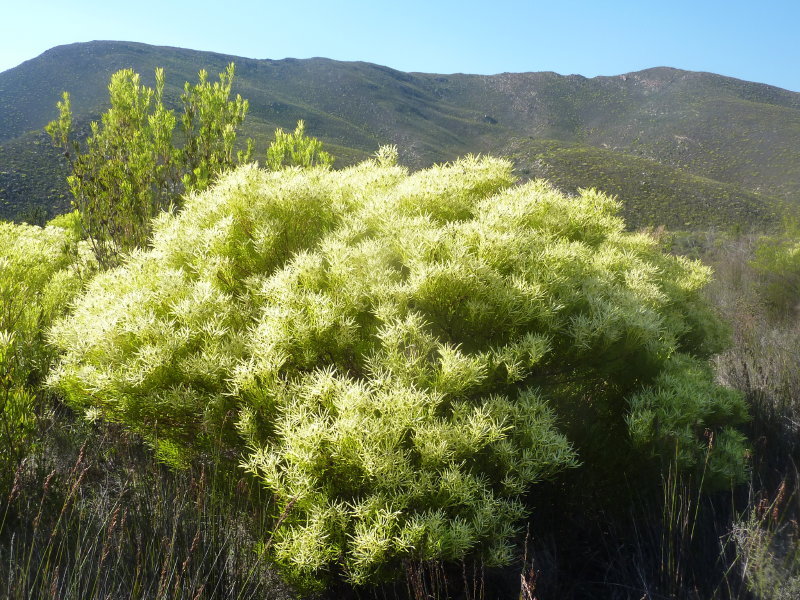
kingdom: Plantae
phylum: Tracheophyta
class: Magnoliopsida
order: Proteales
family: Proteaceae
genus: Leucadendron
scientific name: Leucadendron salignum
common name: Common sunshine conebush
